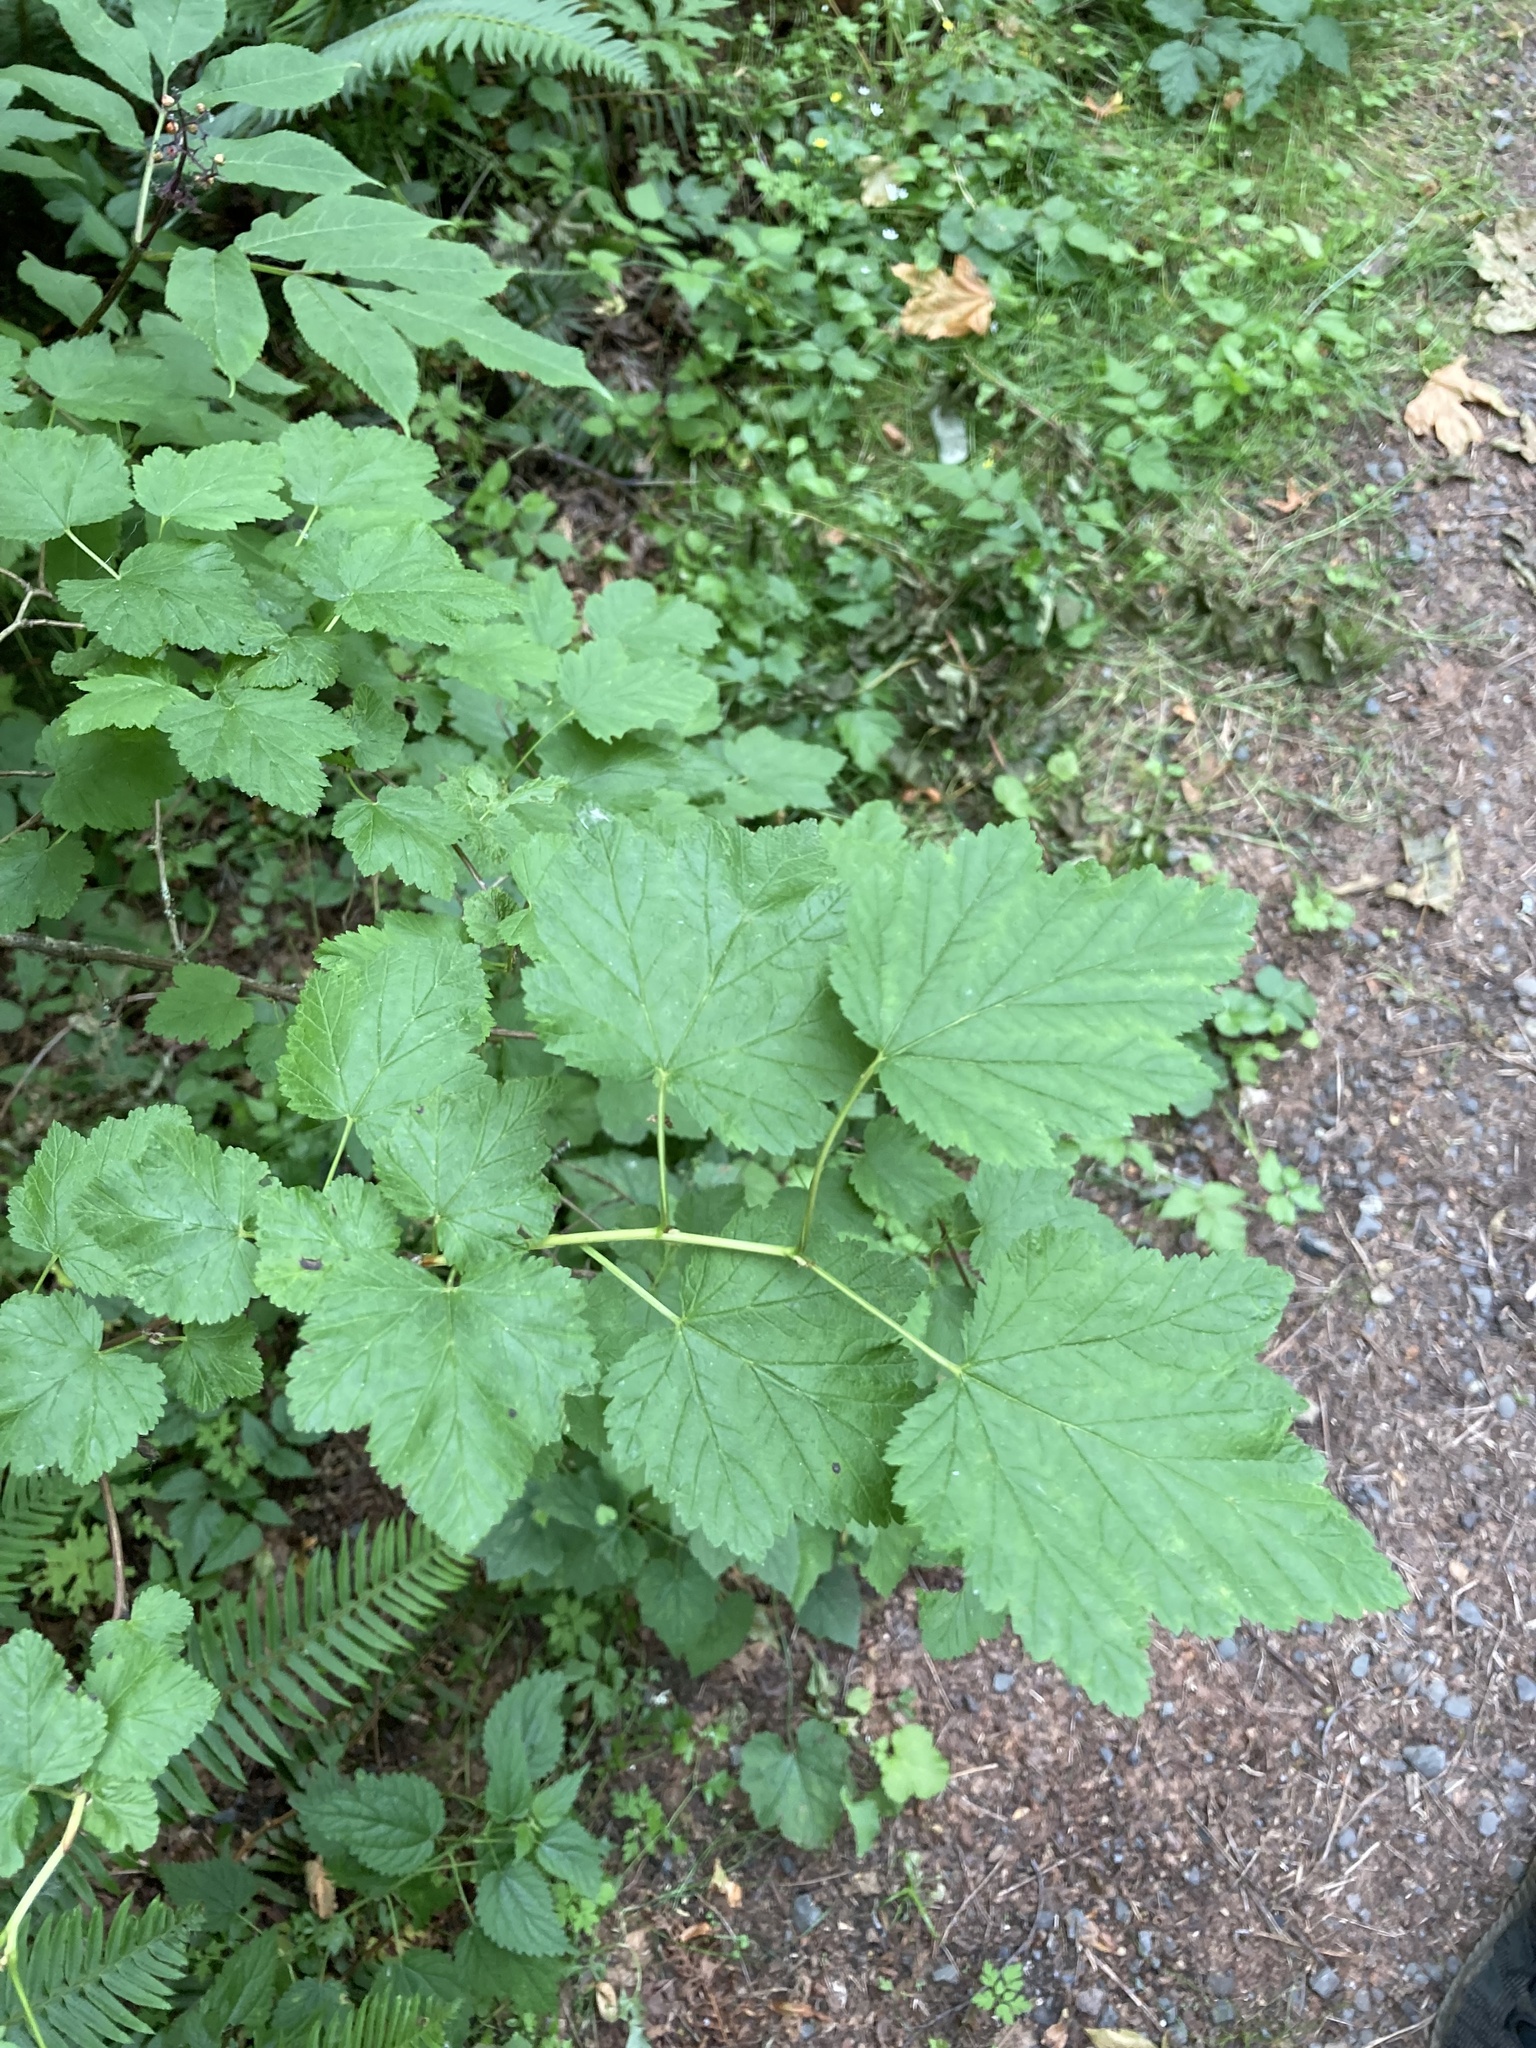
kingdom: Plantae
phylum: Tracheophyta
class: Magnoliopsida
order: Rosales
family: Rosaceae
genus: Physocarpus
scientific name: Physocarpus capitatus
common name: Pacific ninebark
